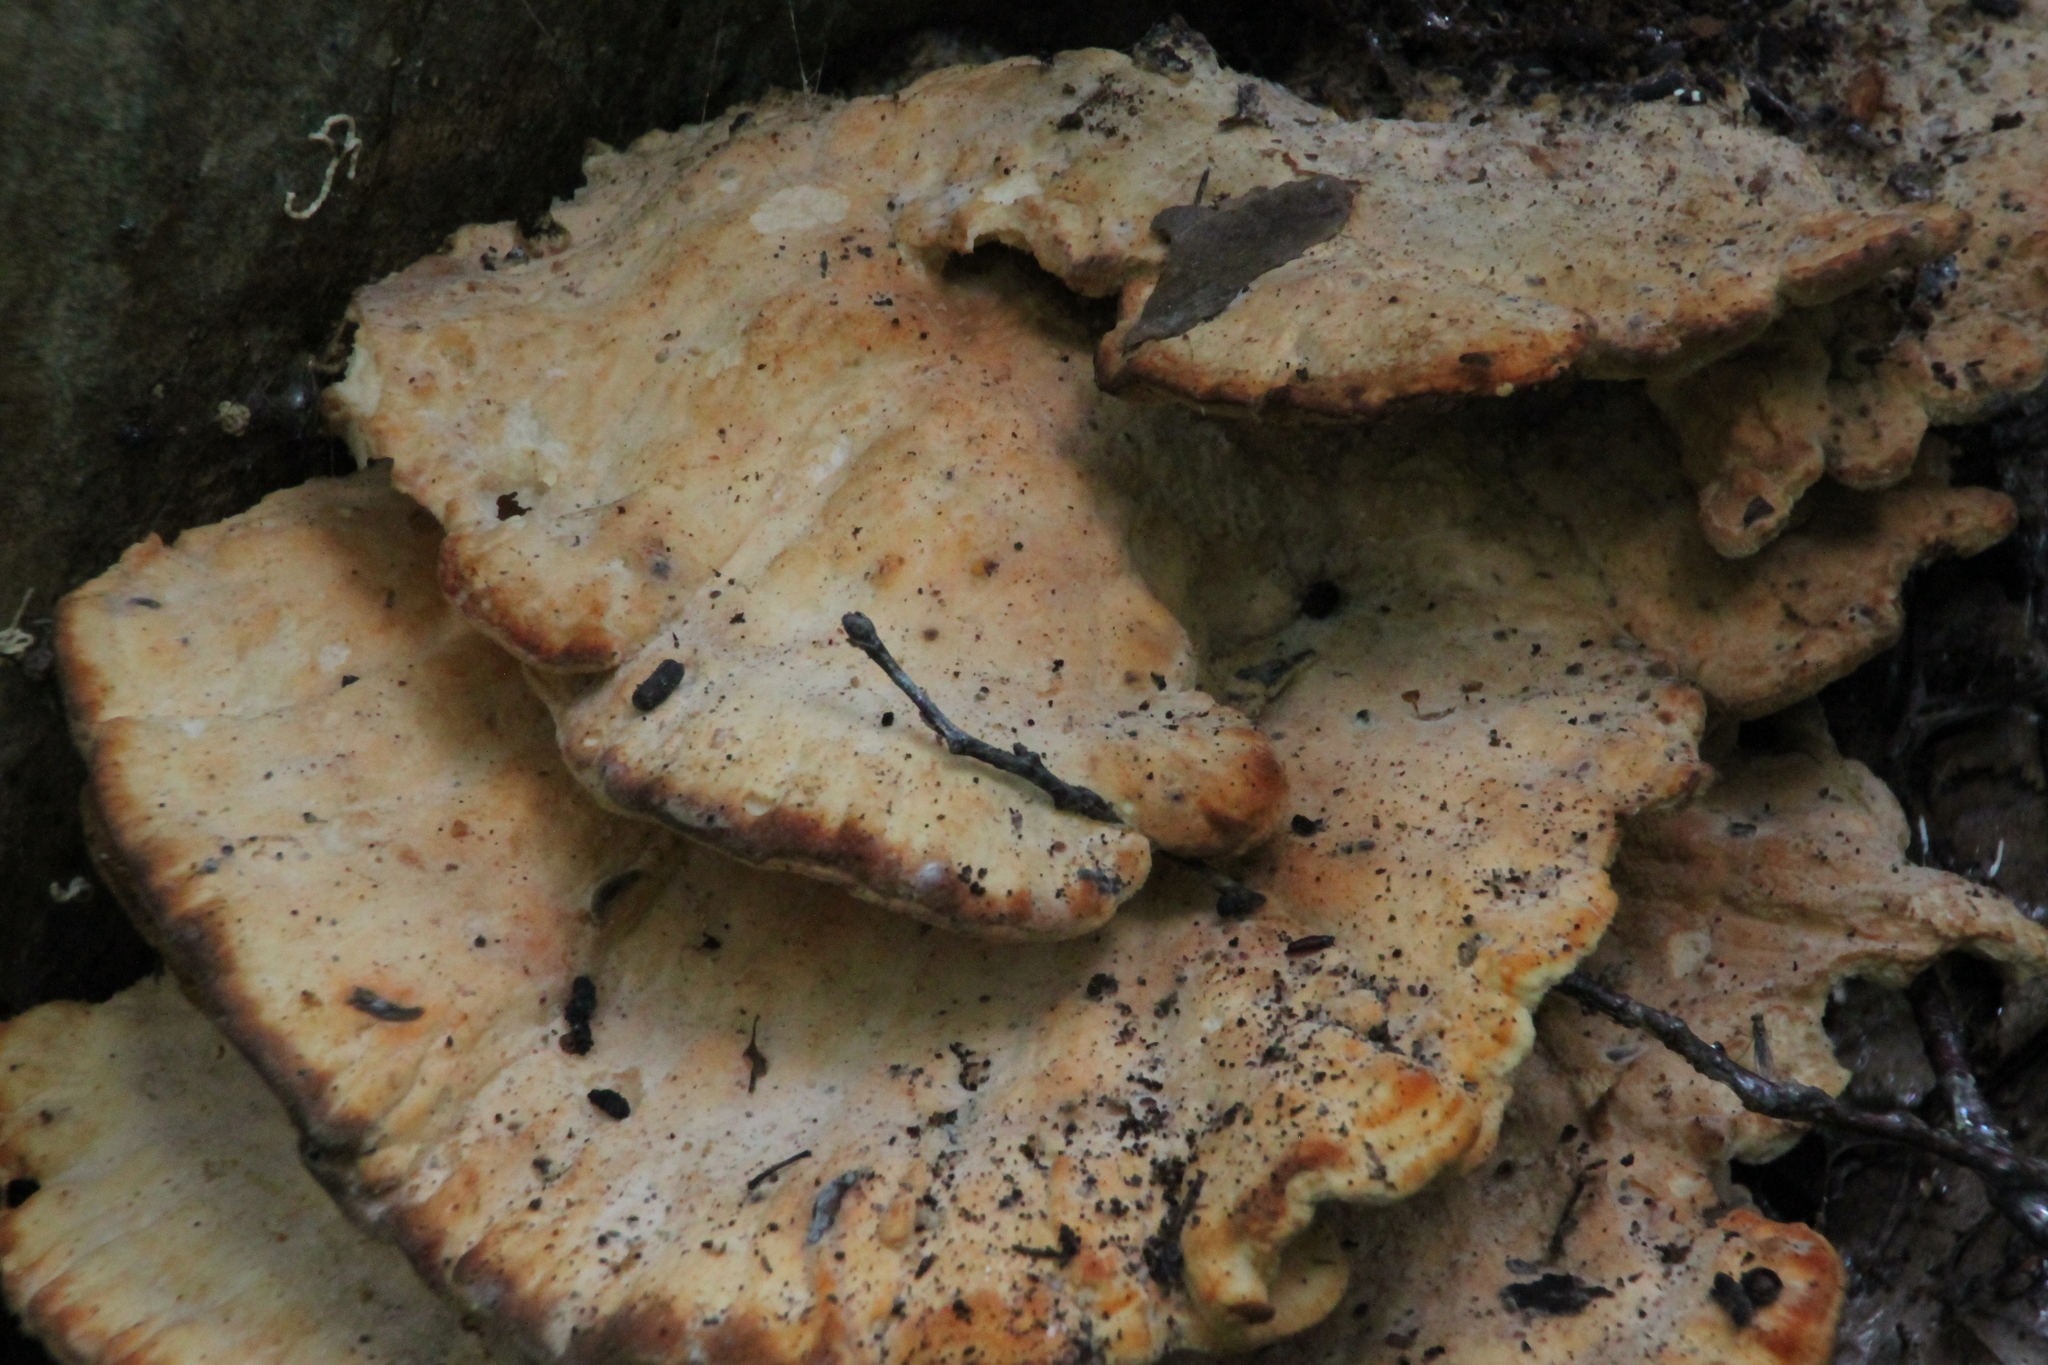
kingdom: Fungi
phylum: Basidiomycota
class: Agaricomycetes
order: Polyporales
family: Laetiporaceae
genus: Laetiporus
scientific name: Laetiporus sulphureus
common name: Chicken of the woods
